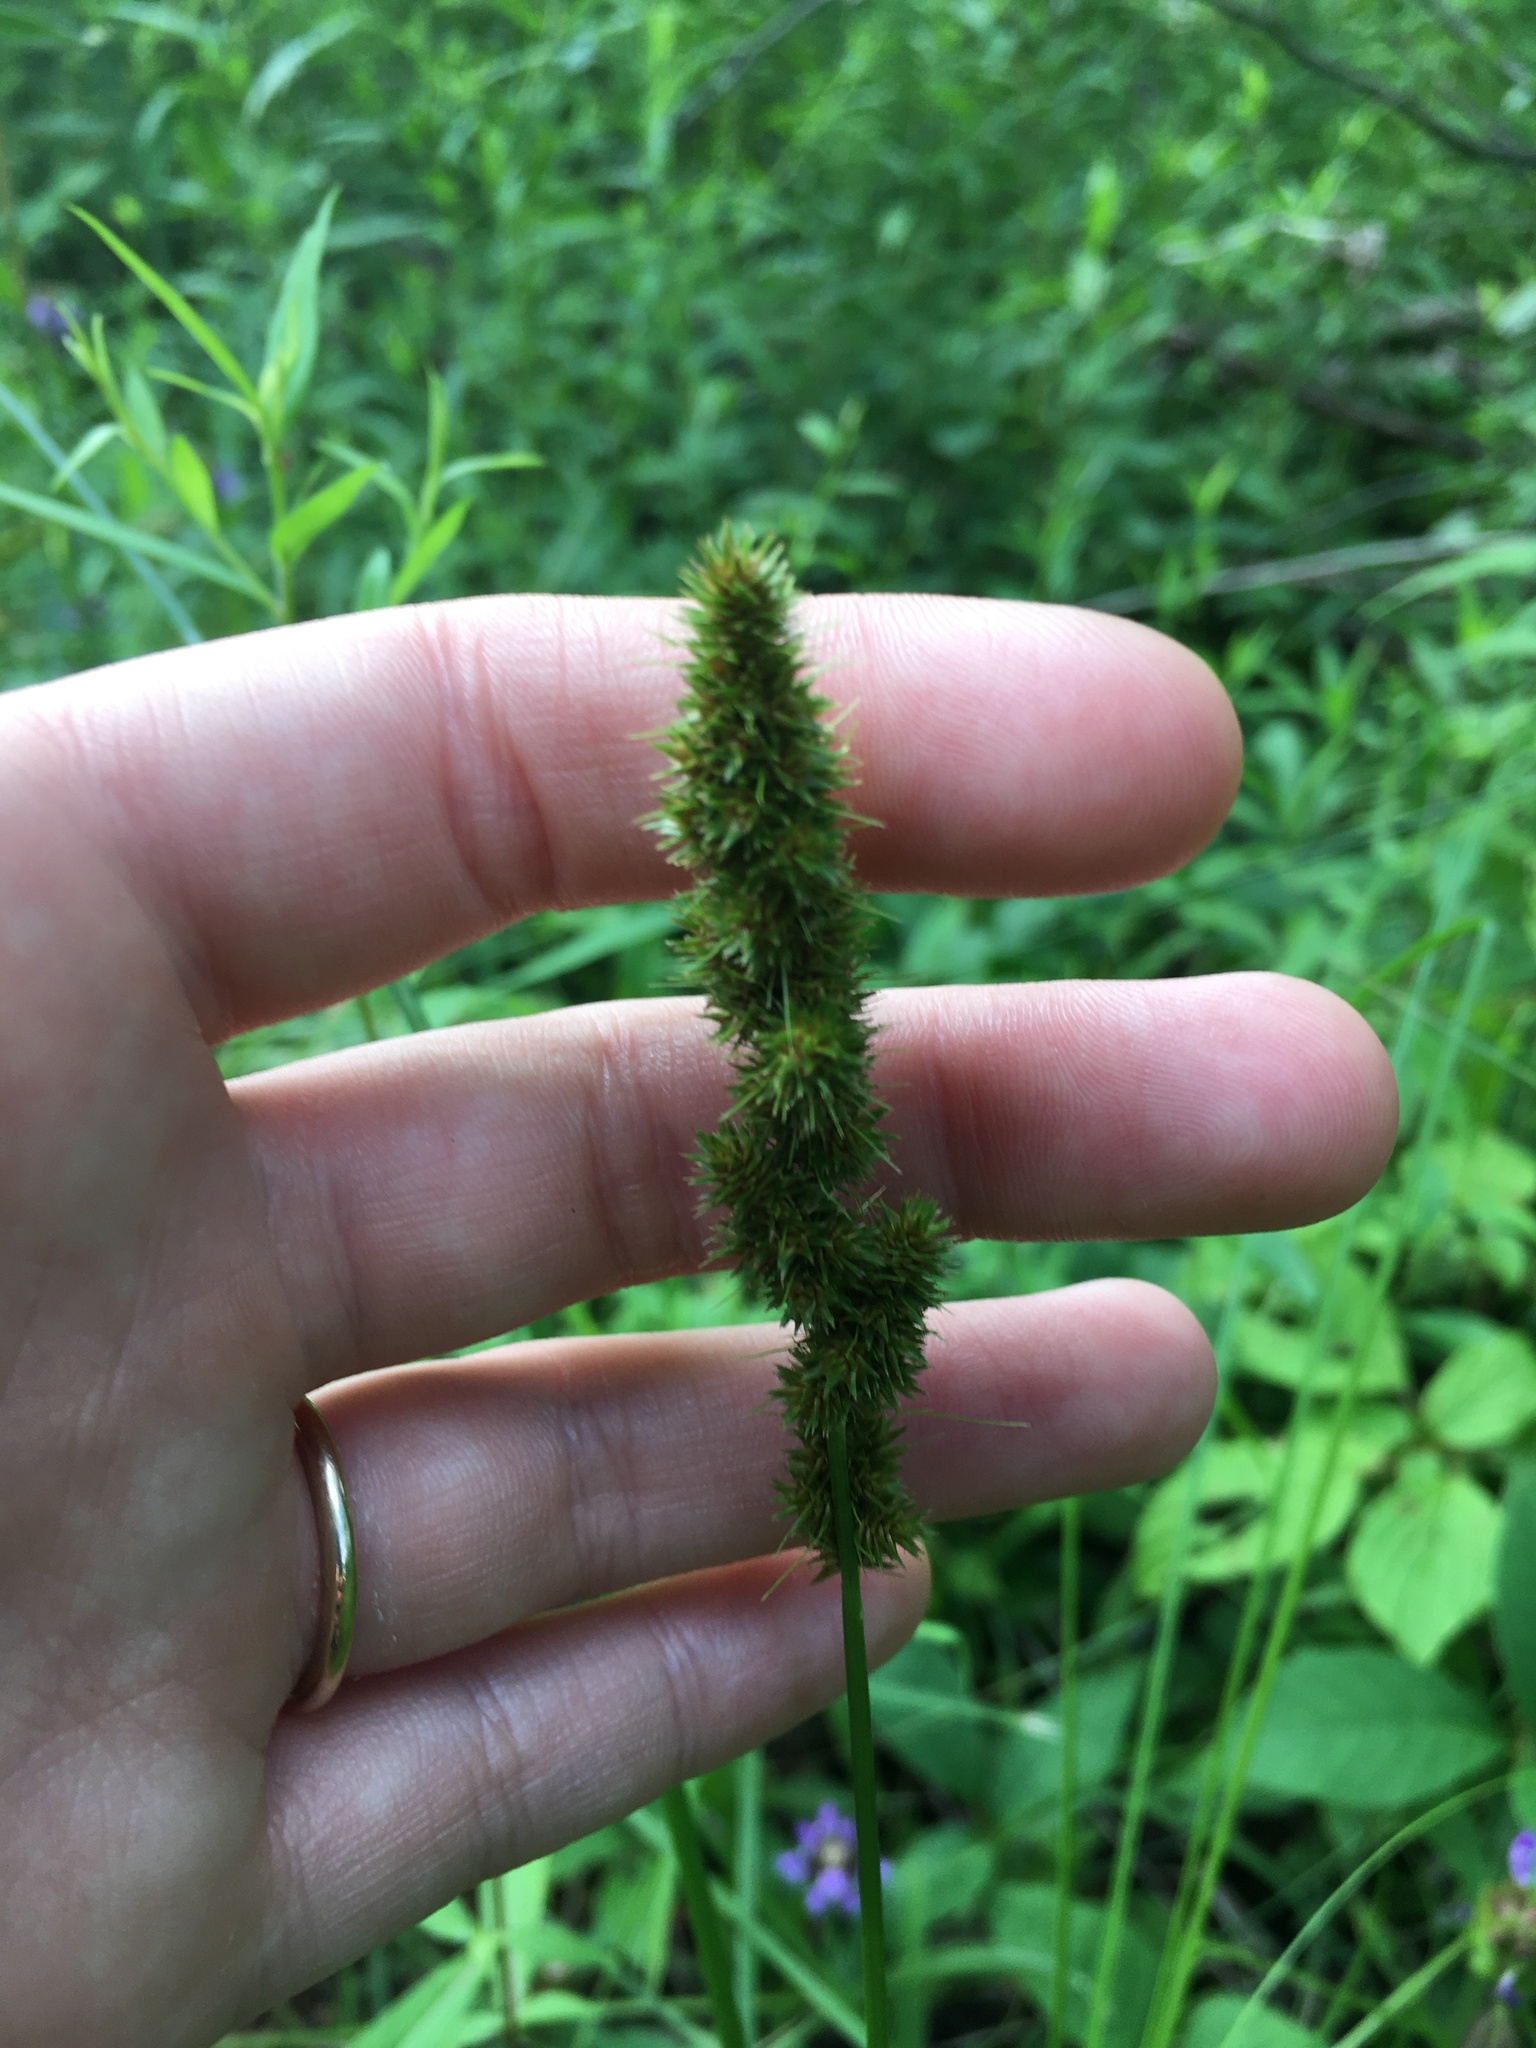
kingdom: Plantae
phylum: Tracheophyta
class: Liliopsida
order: Poales
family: Cyperaceae
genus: Carex
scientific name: Carex vulpinoidea
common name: American fox-sedge
